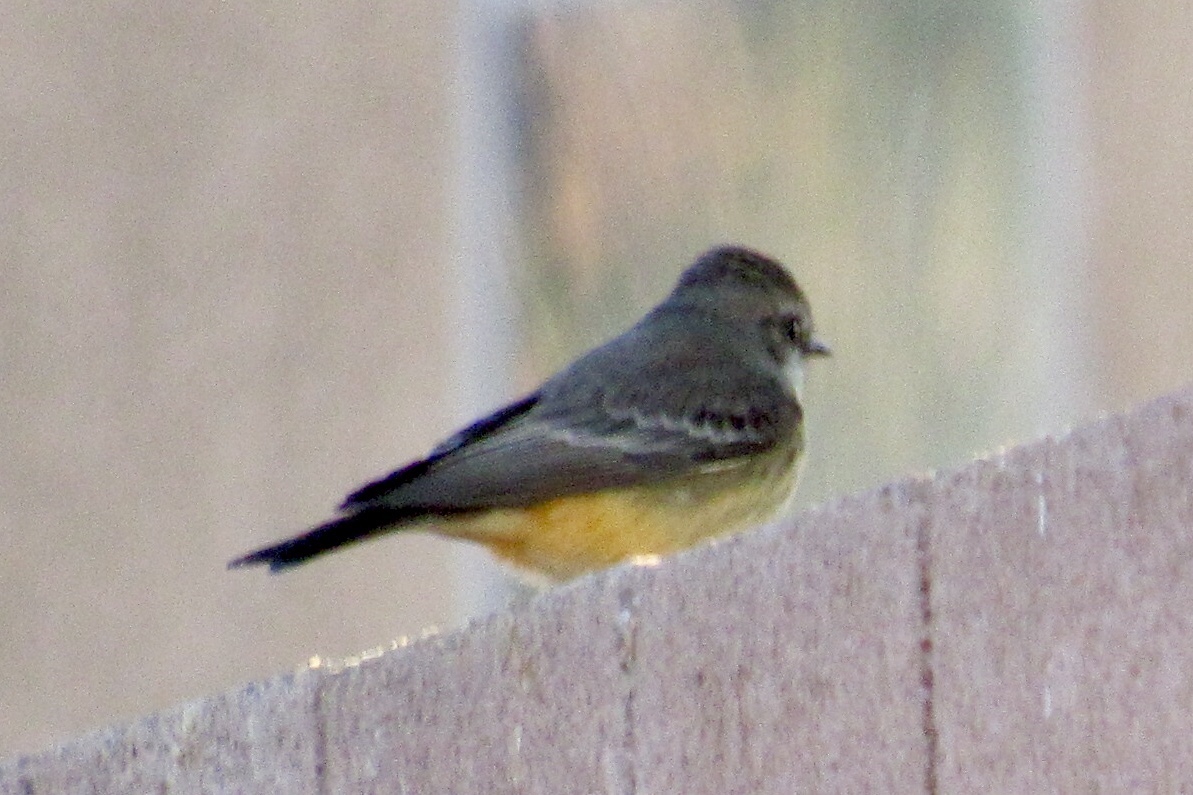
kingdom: Animalia
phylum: Chordata
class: Aves
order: Passeriformes
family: Tyrannidae
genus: Pyrocephalus
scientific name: Pyrocephalus rubinus
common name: Vermilion flycatcher
